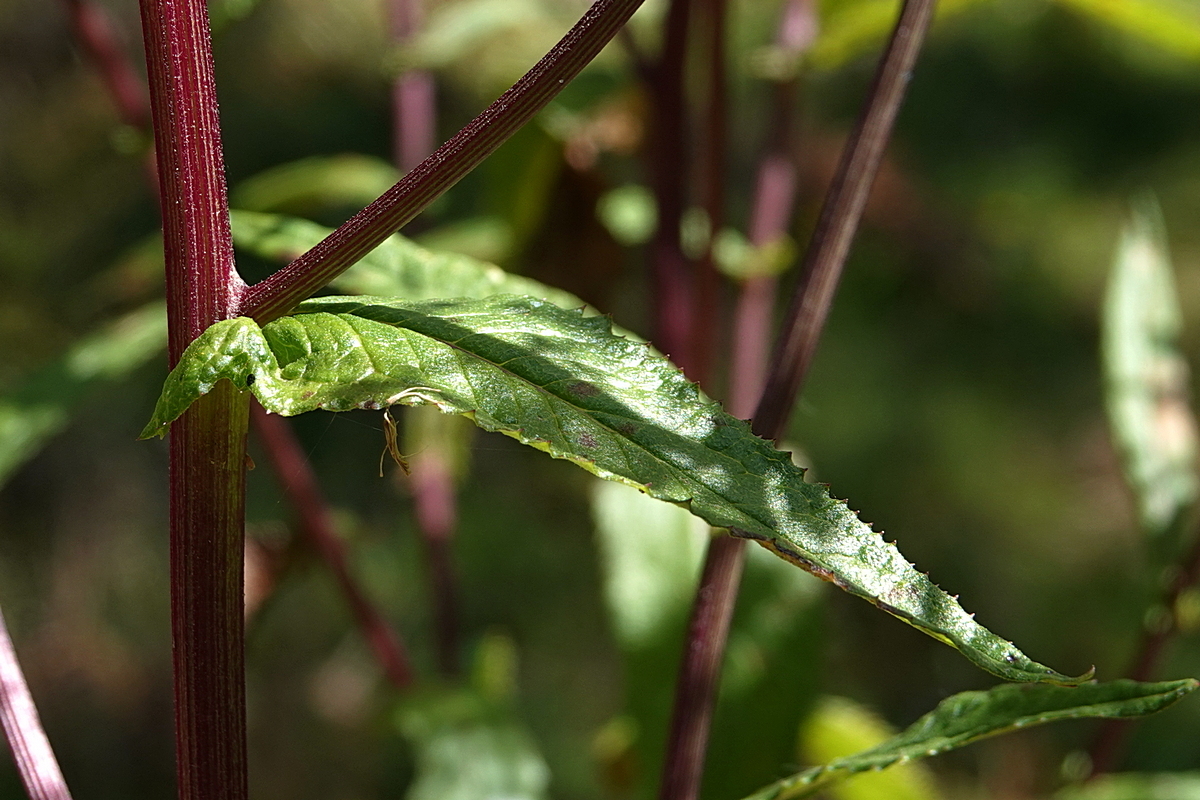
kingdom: Plantae
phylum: Tracheophyta
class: Magnoliopsida
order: Asterales
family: Asteraceae
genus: Senecio
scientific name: Senecio minimus
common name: Toothed fireweed
